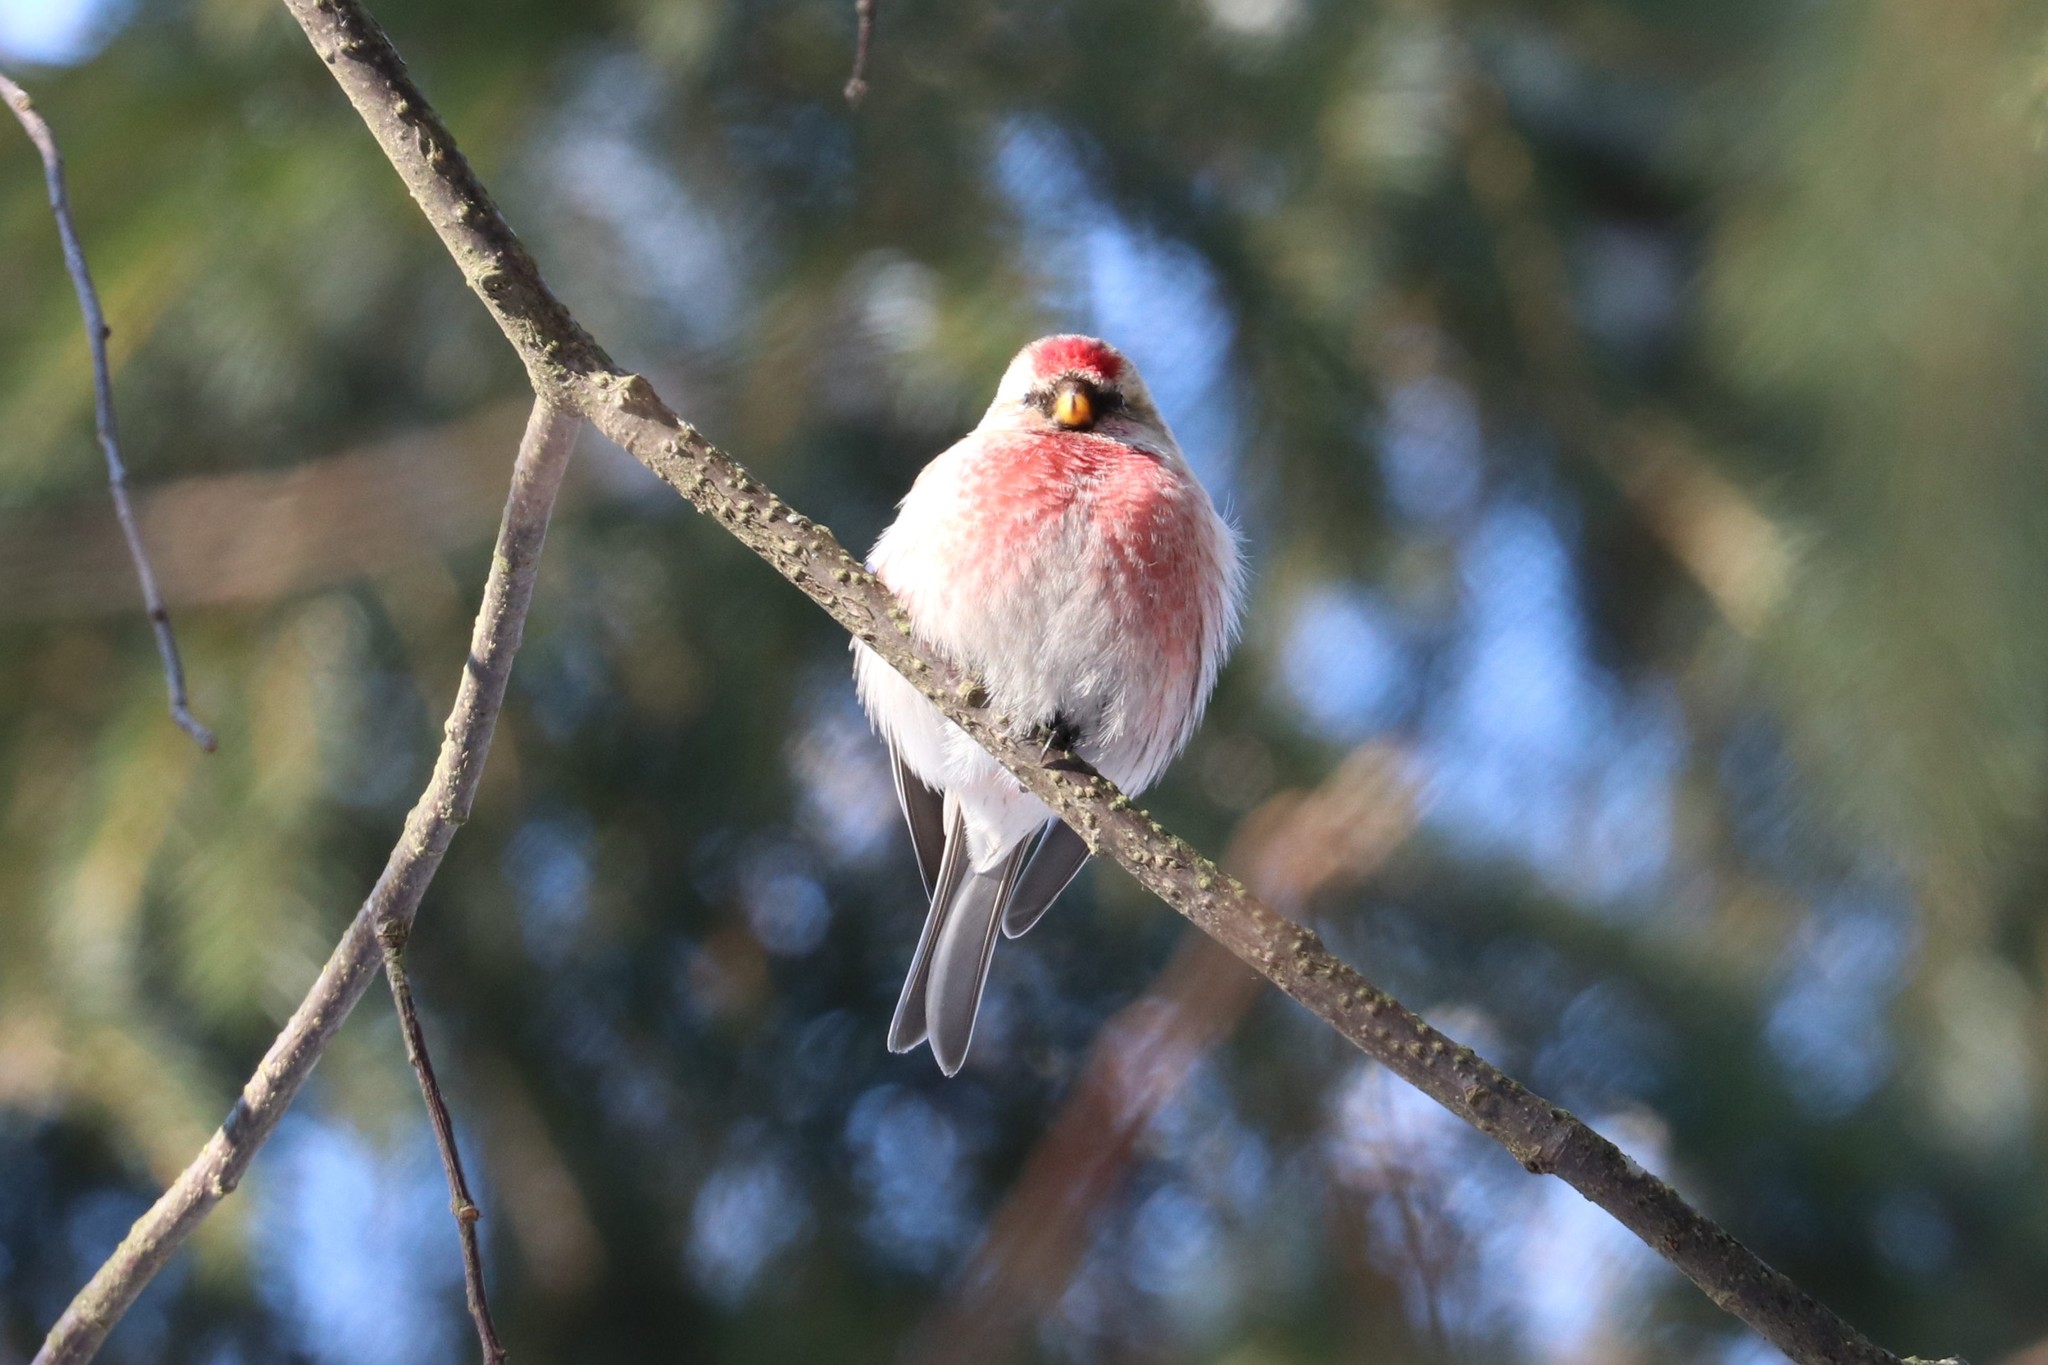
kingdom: Animalia
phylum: Chordata
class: Aves
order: Passeriformes
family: Fringillidae
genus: Acanthis
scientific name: Acanthis flammea
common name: Common redpoll
